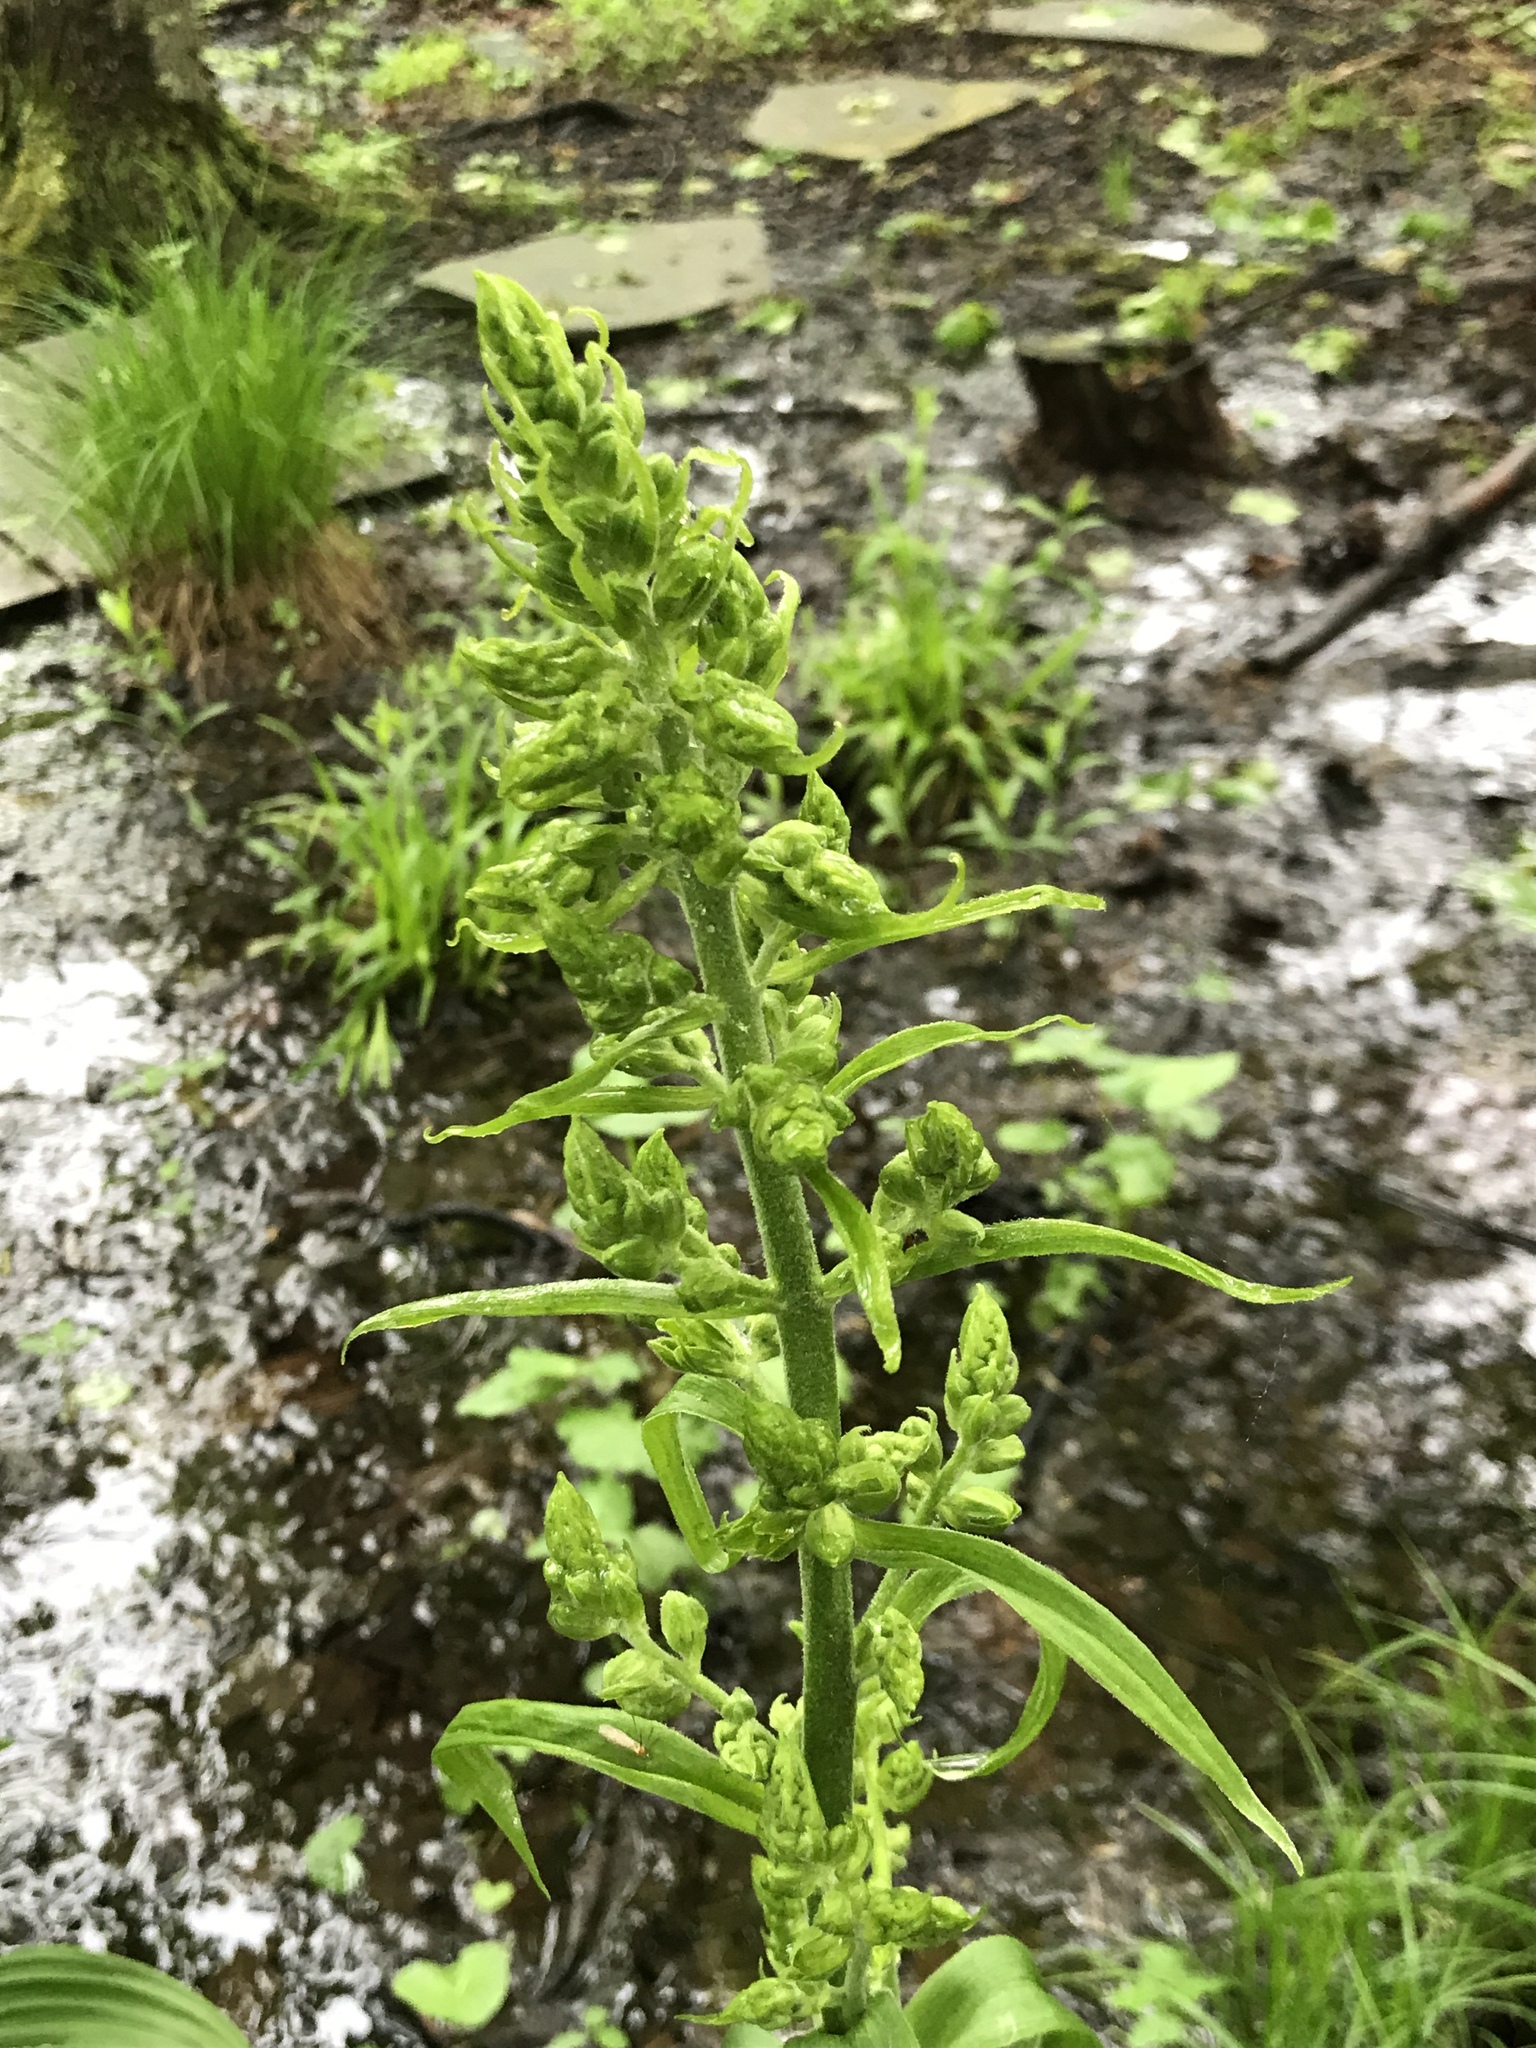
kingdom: Plantae
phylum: Tracheophyta
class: Liliopsida
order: Liliales
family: Melanthiaceae
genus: Veratrum
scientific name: Veratrum viride
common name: American false hellebore
